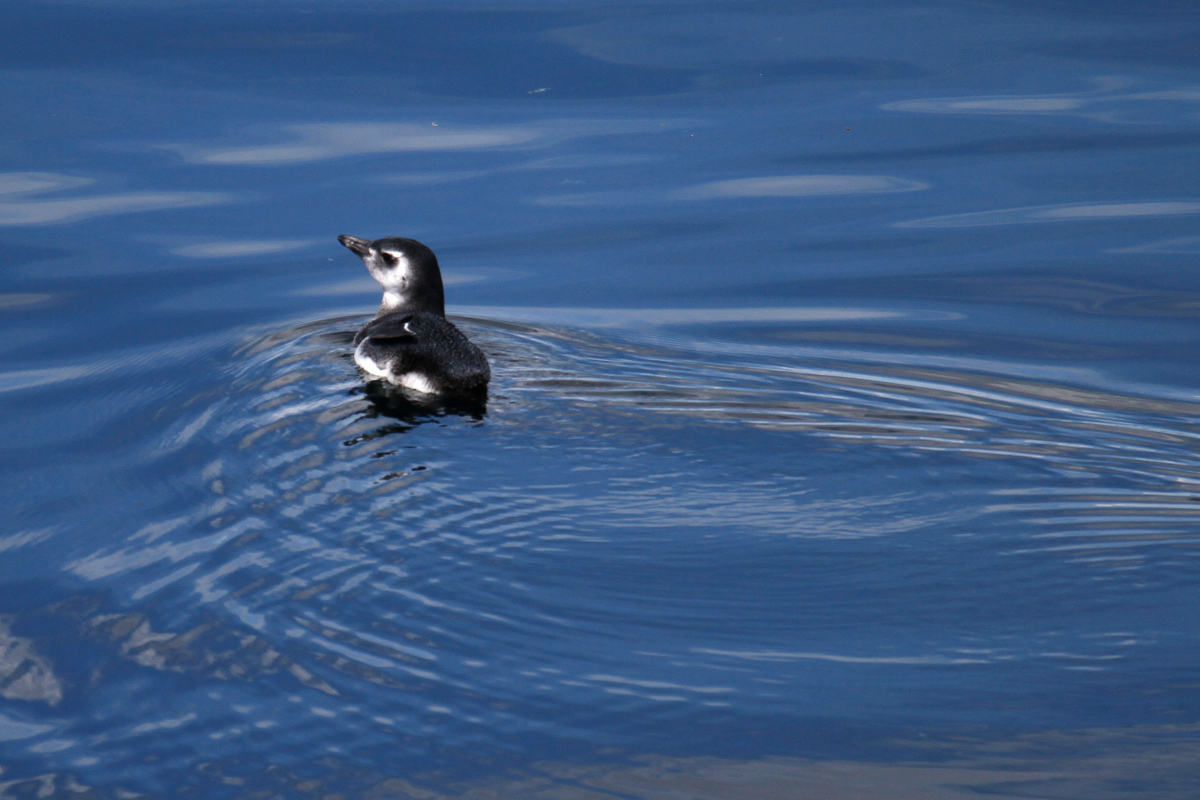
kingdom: Animalia
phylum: Chordata
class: Aves
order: Sphenisciformes
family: Spheniscidae
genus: Spheniscus
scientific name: Spheniscus magellanicus
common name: Magellanic penguin
